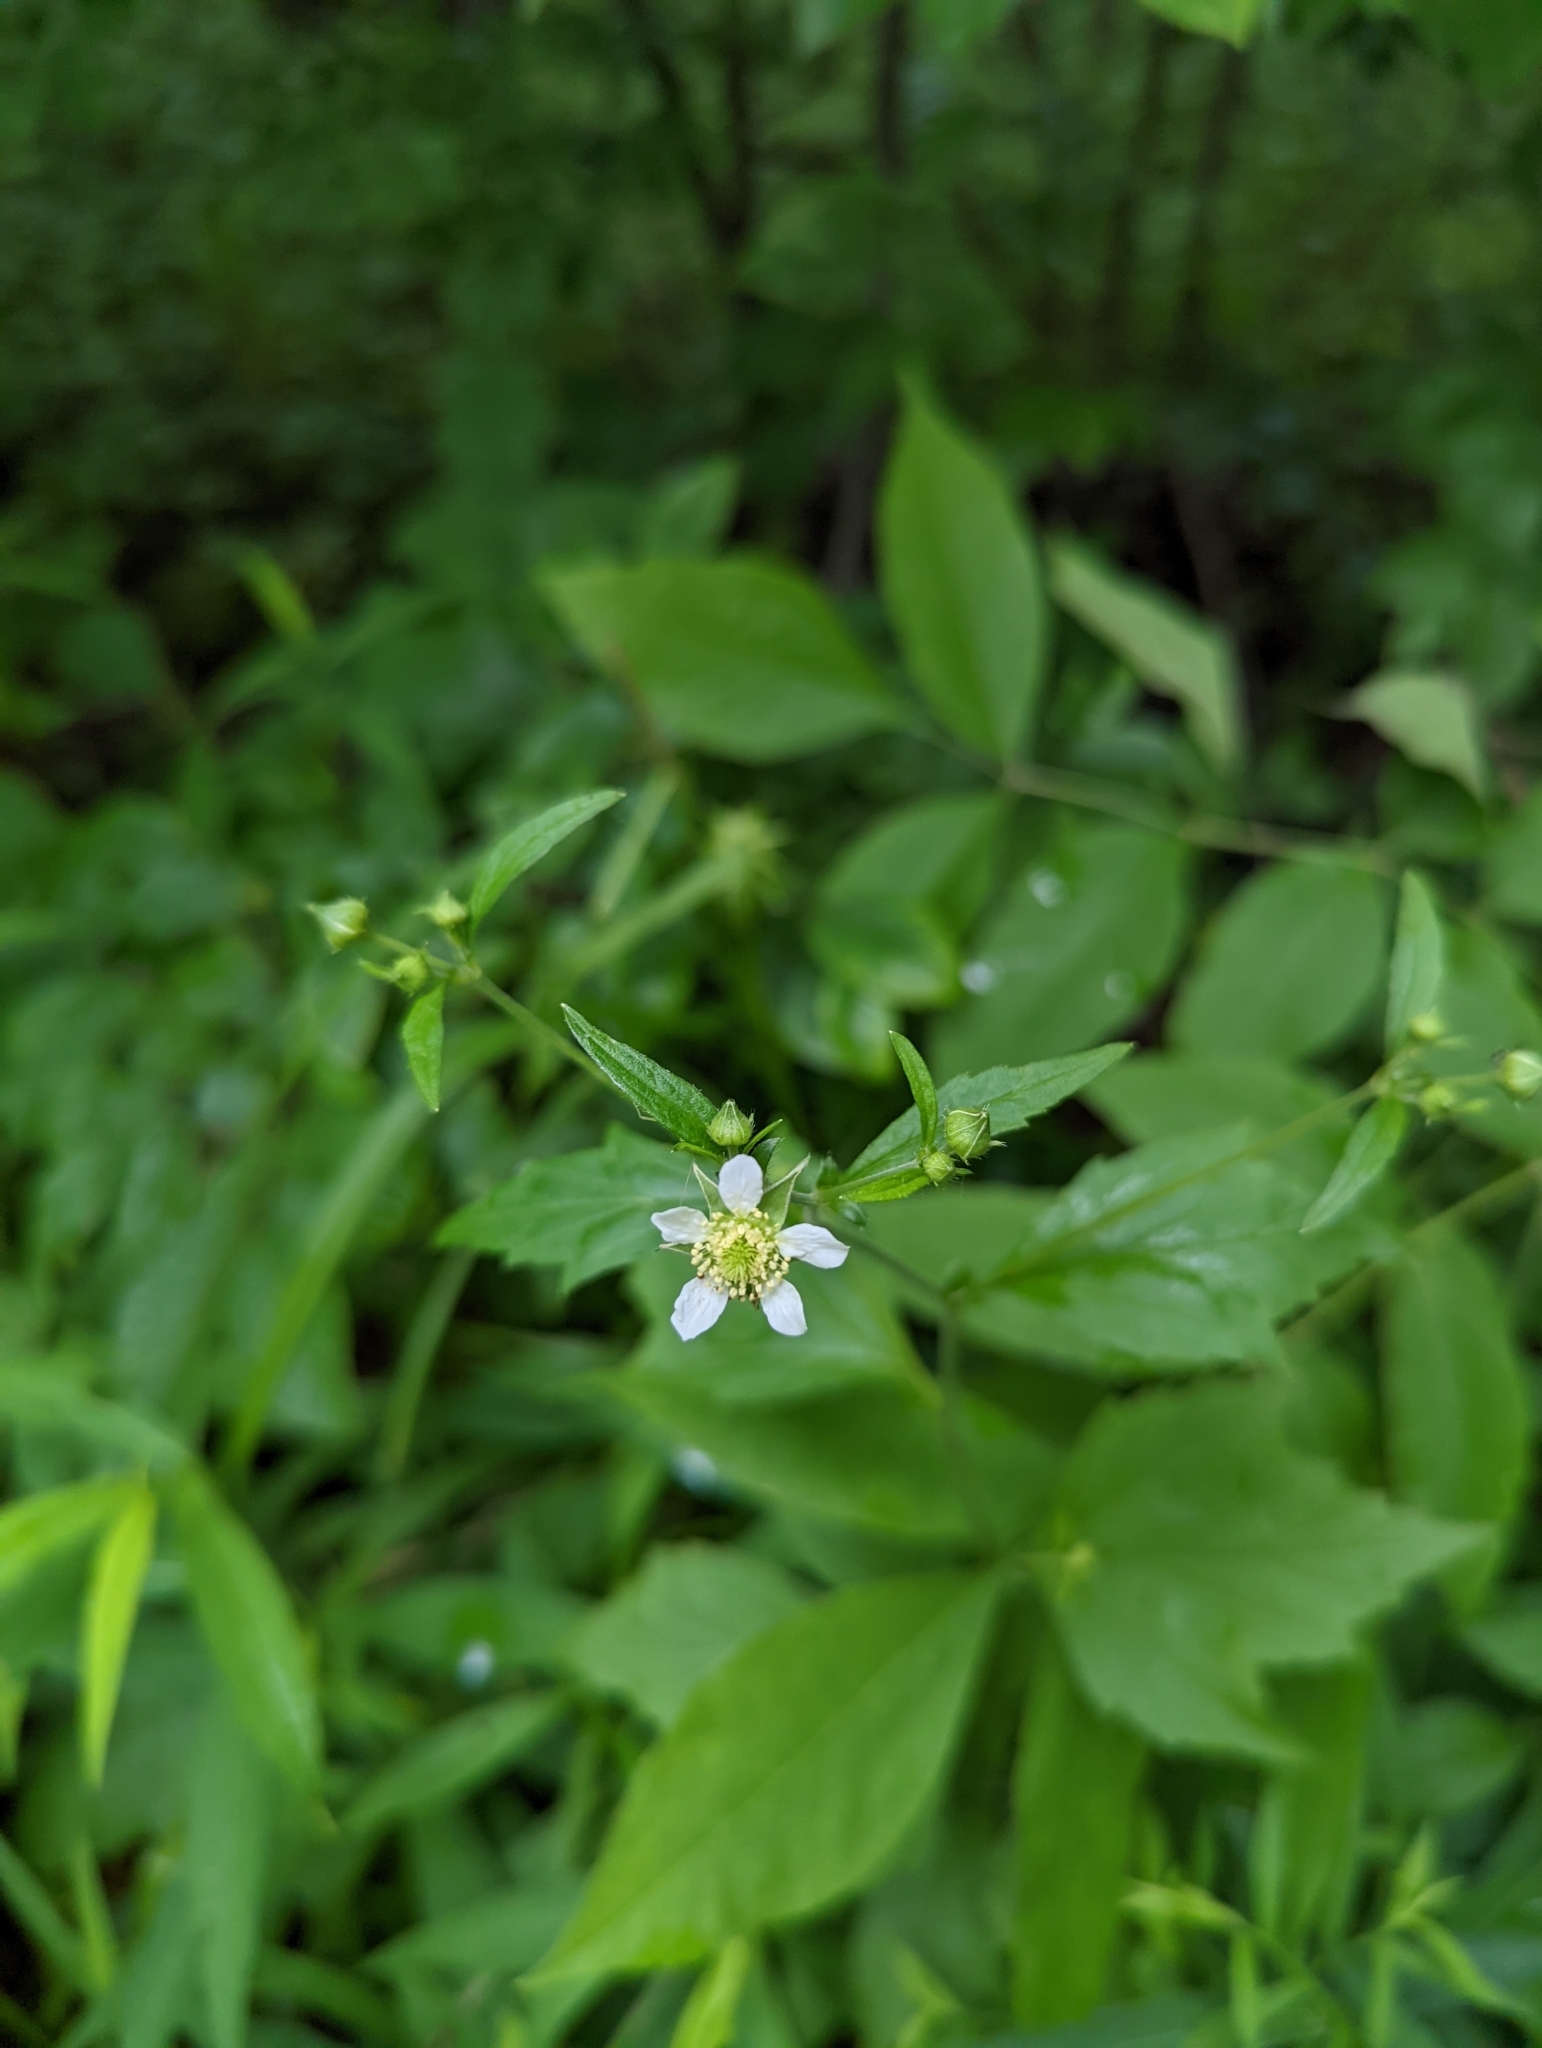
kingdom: Plantae
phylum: Tracheophyta
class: Magnoliopsida
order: Rosales
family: Rosaceae
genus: Geum
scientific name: Geum canadense
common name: White avens
